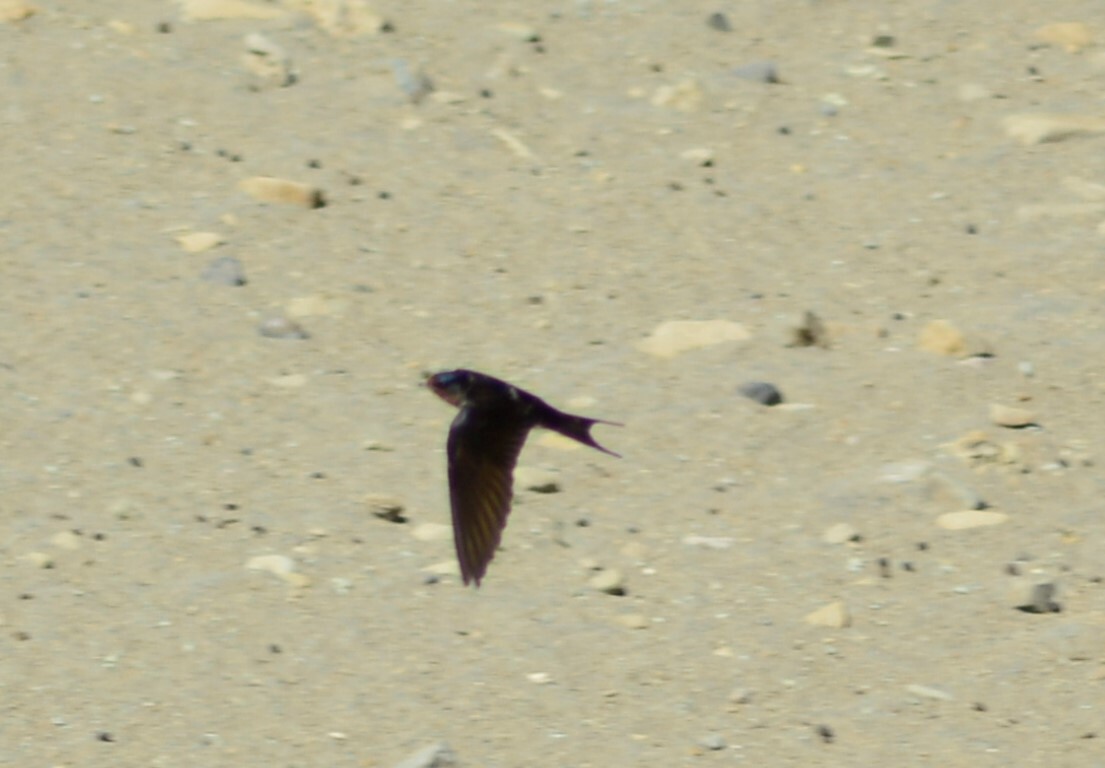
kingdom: Animalia
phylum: Chordata
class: Aves
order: Passeriformes
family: Hirundinidae
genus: Hirundo
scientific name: Hirundo rustica
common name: Barn swallow
